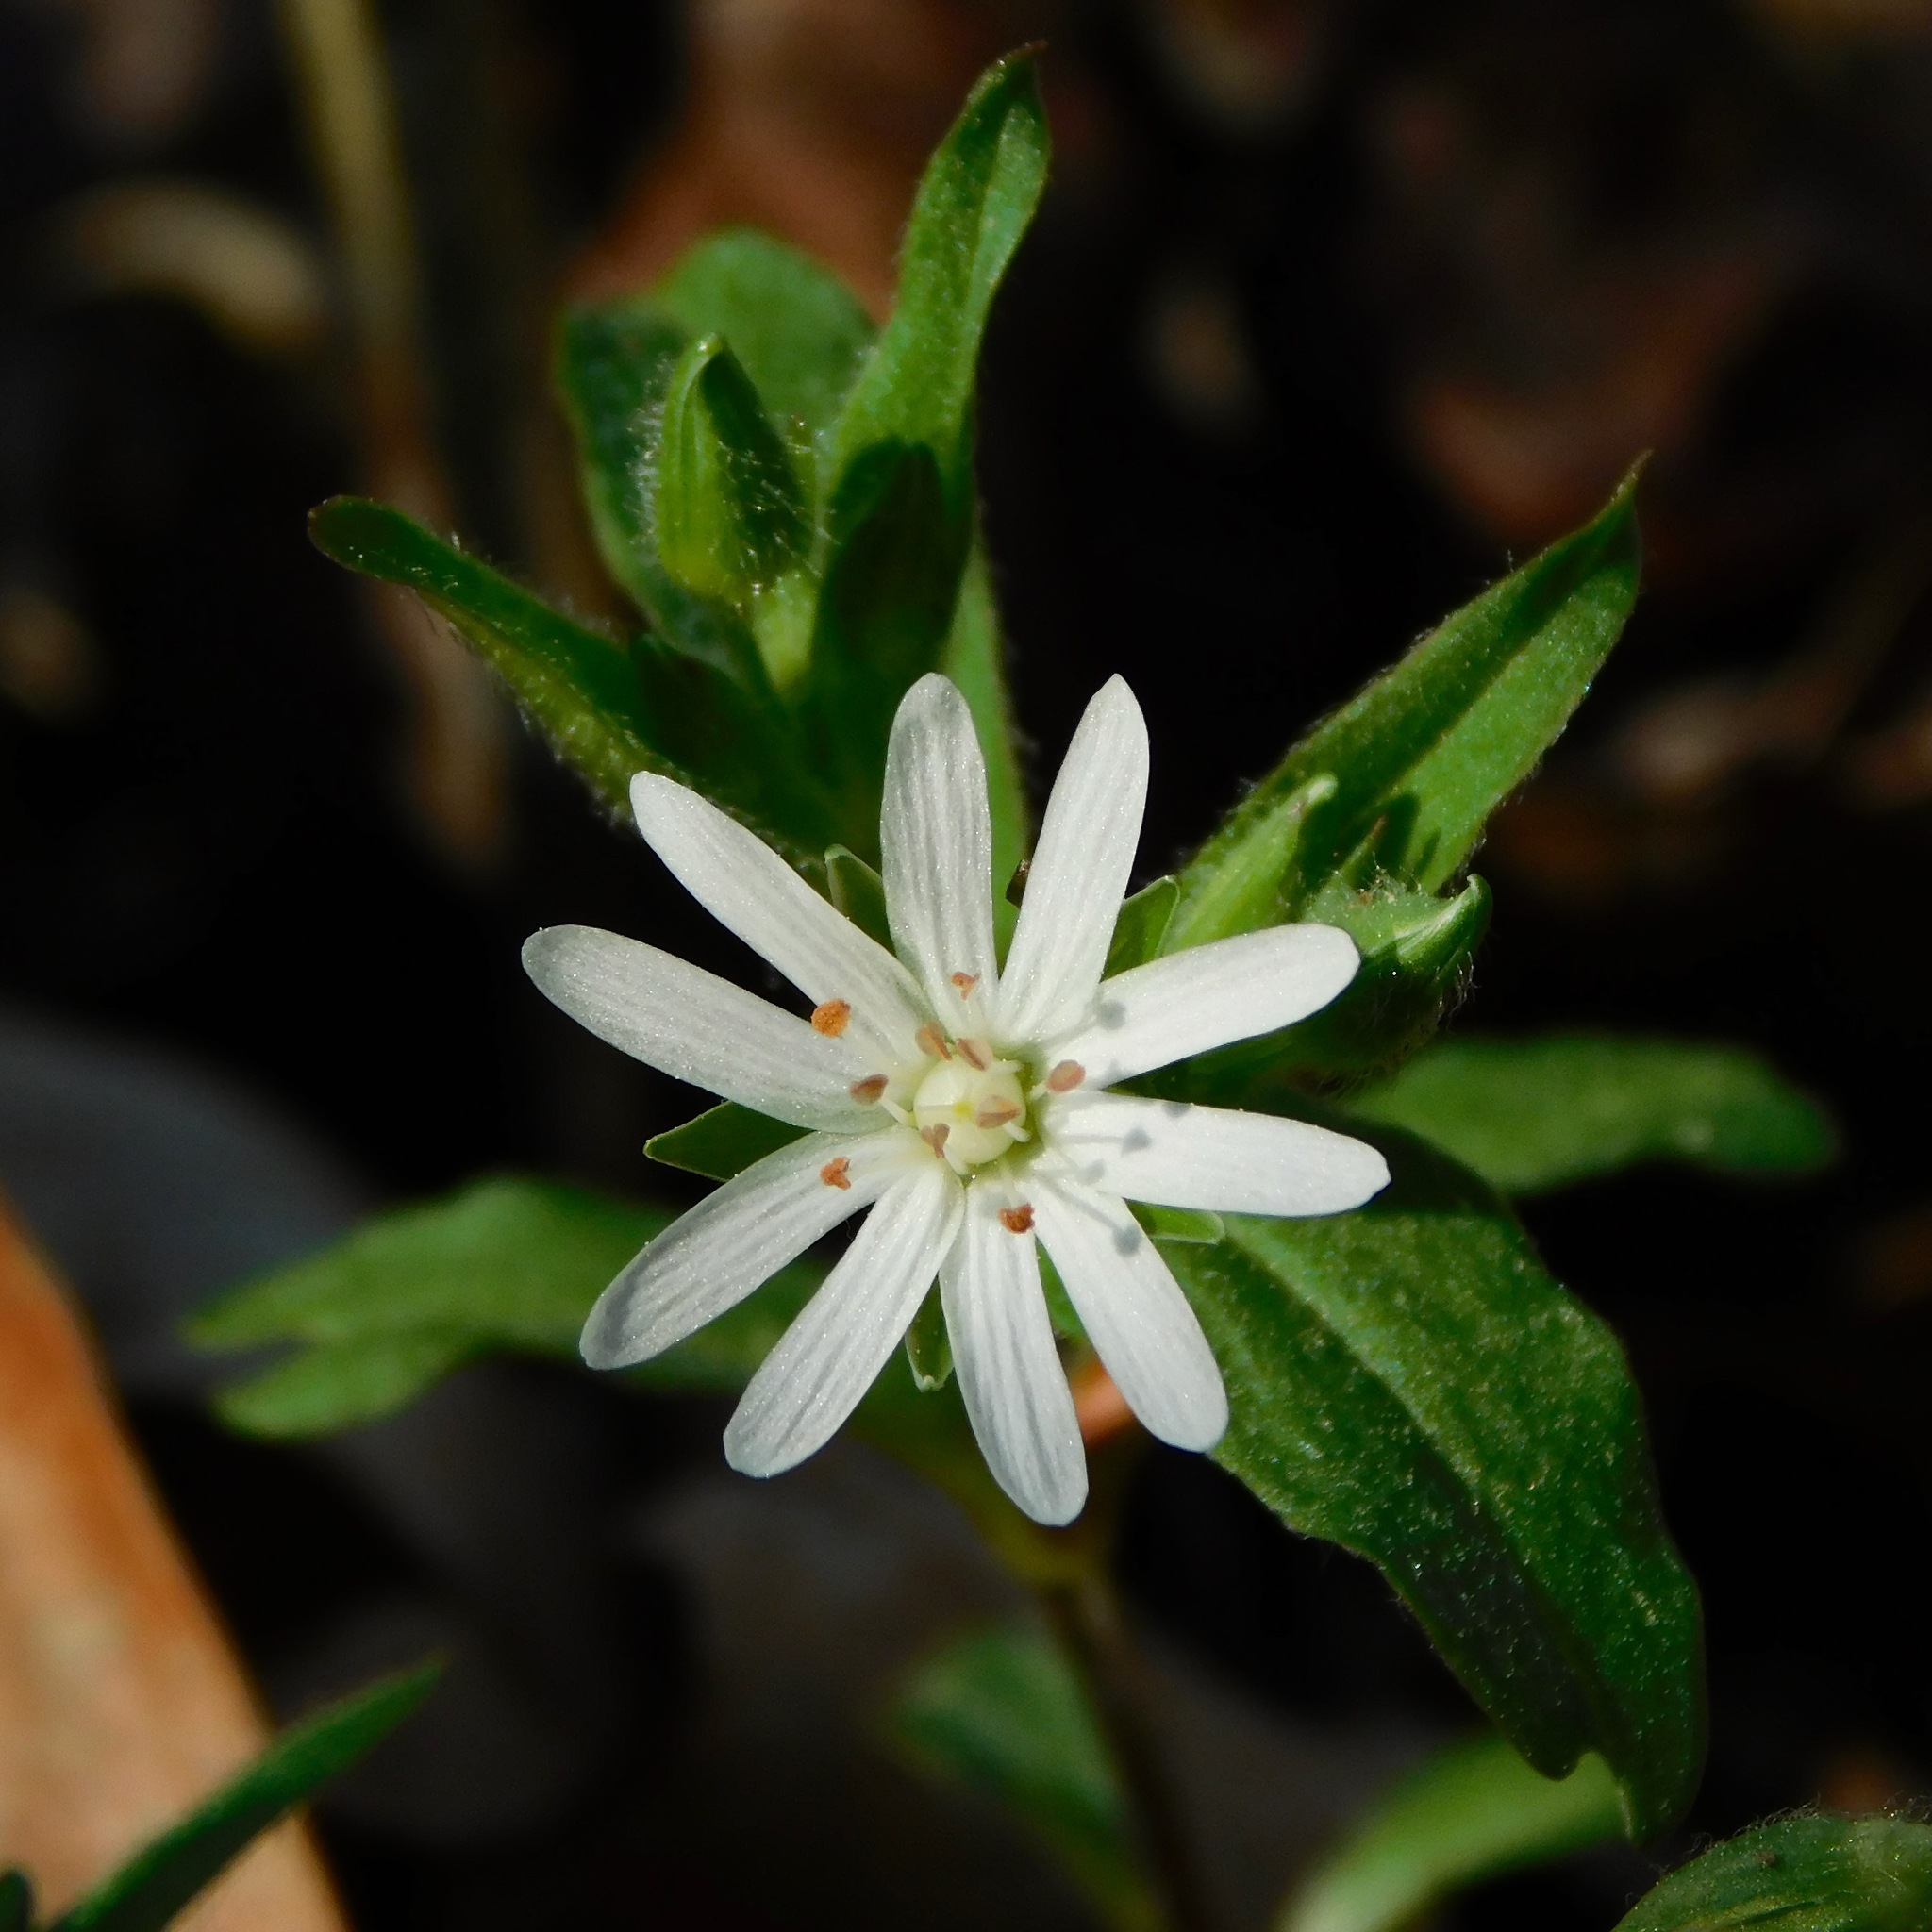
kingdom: Plantae
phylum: Tracheophyta
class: Magnoliopsida
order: Caryophyllales
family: Caryophyllaceae
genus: Stellaria
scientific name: Stellaria pubera
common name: Star chickweed
